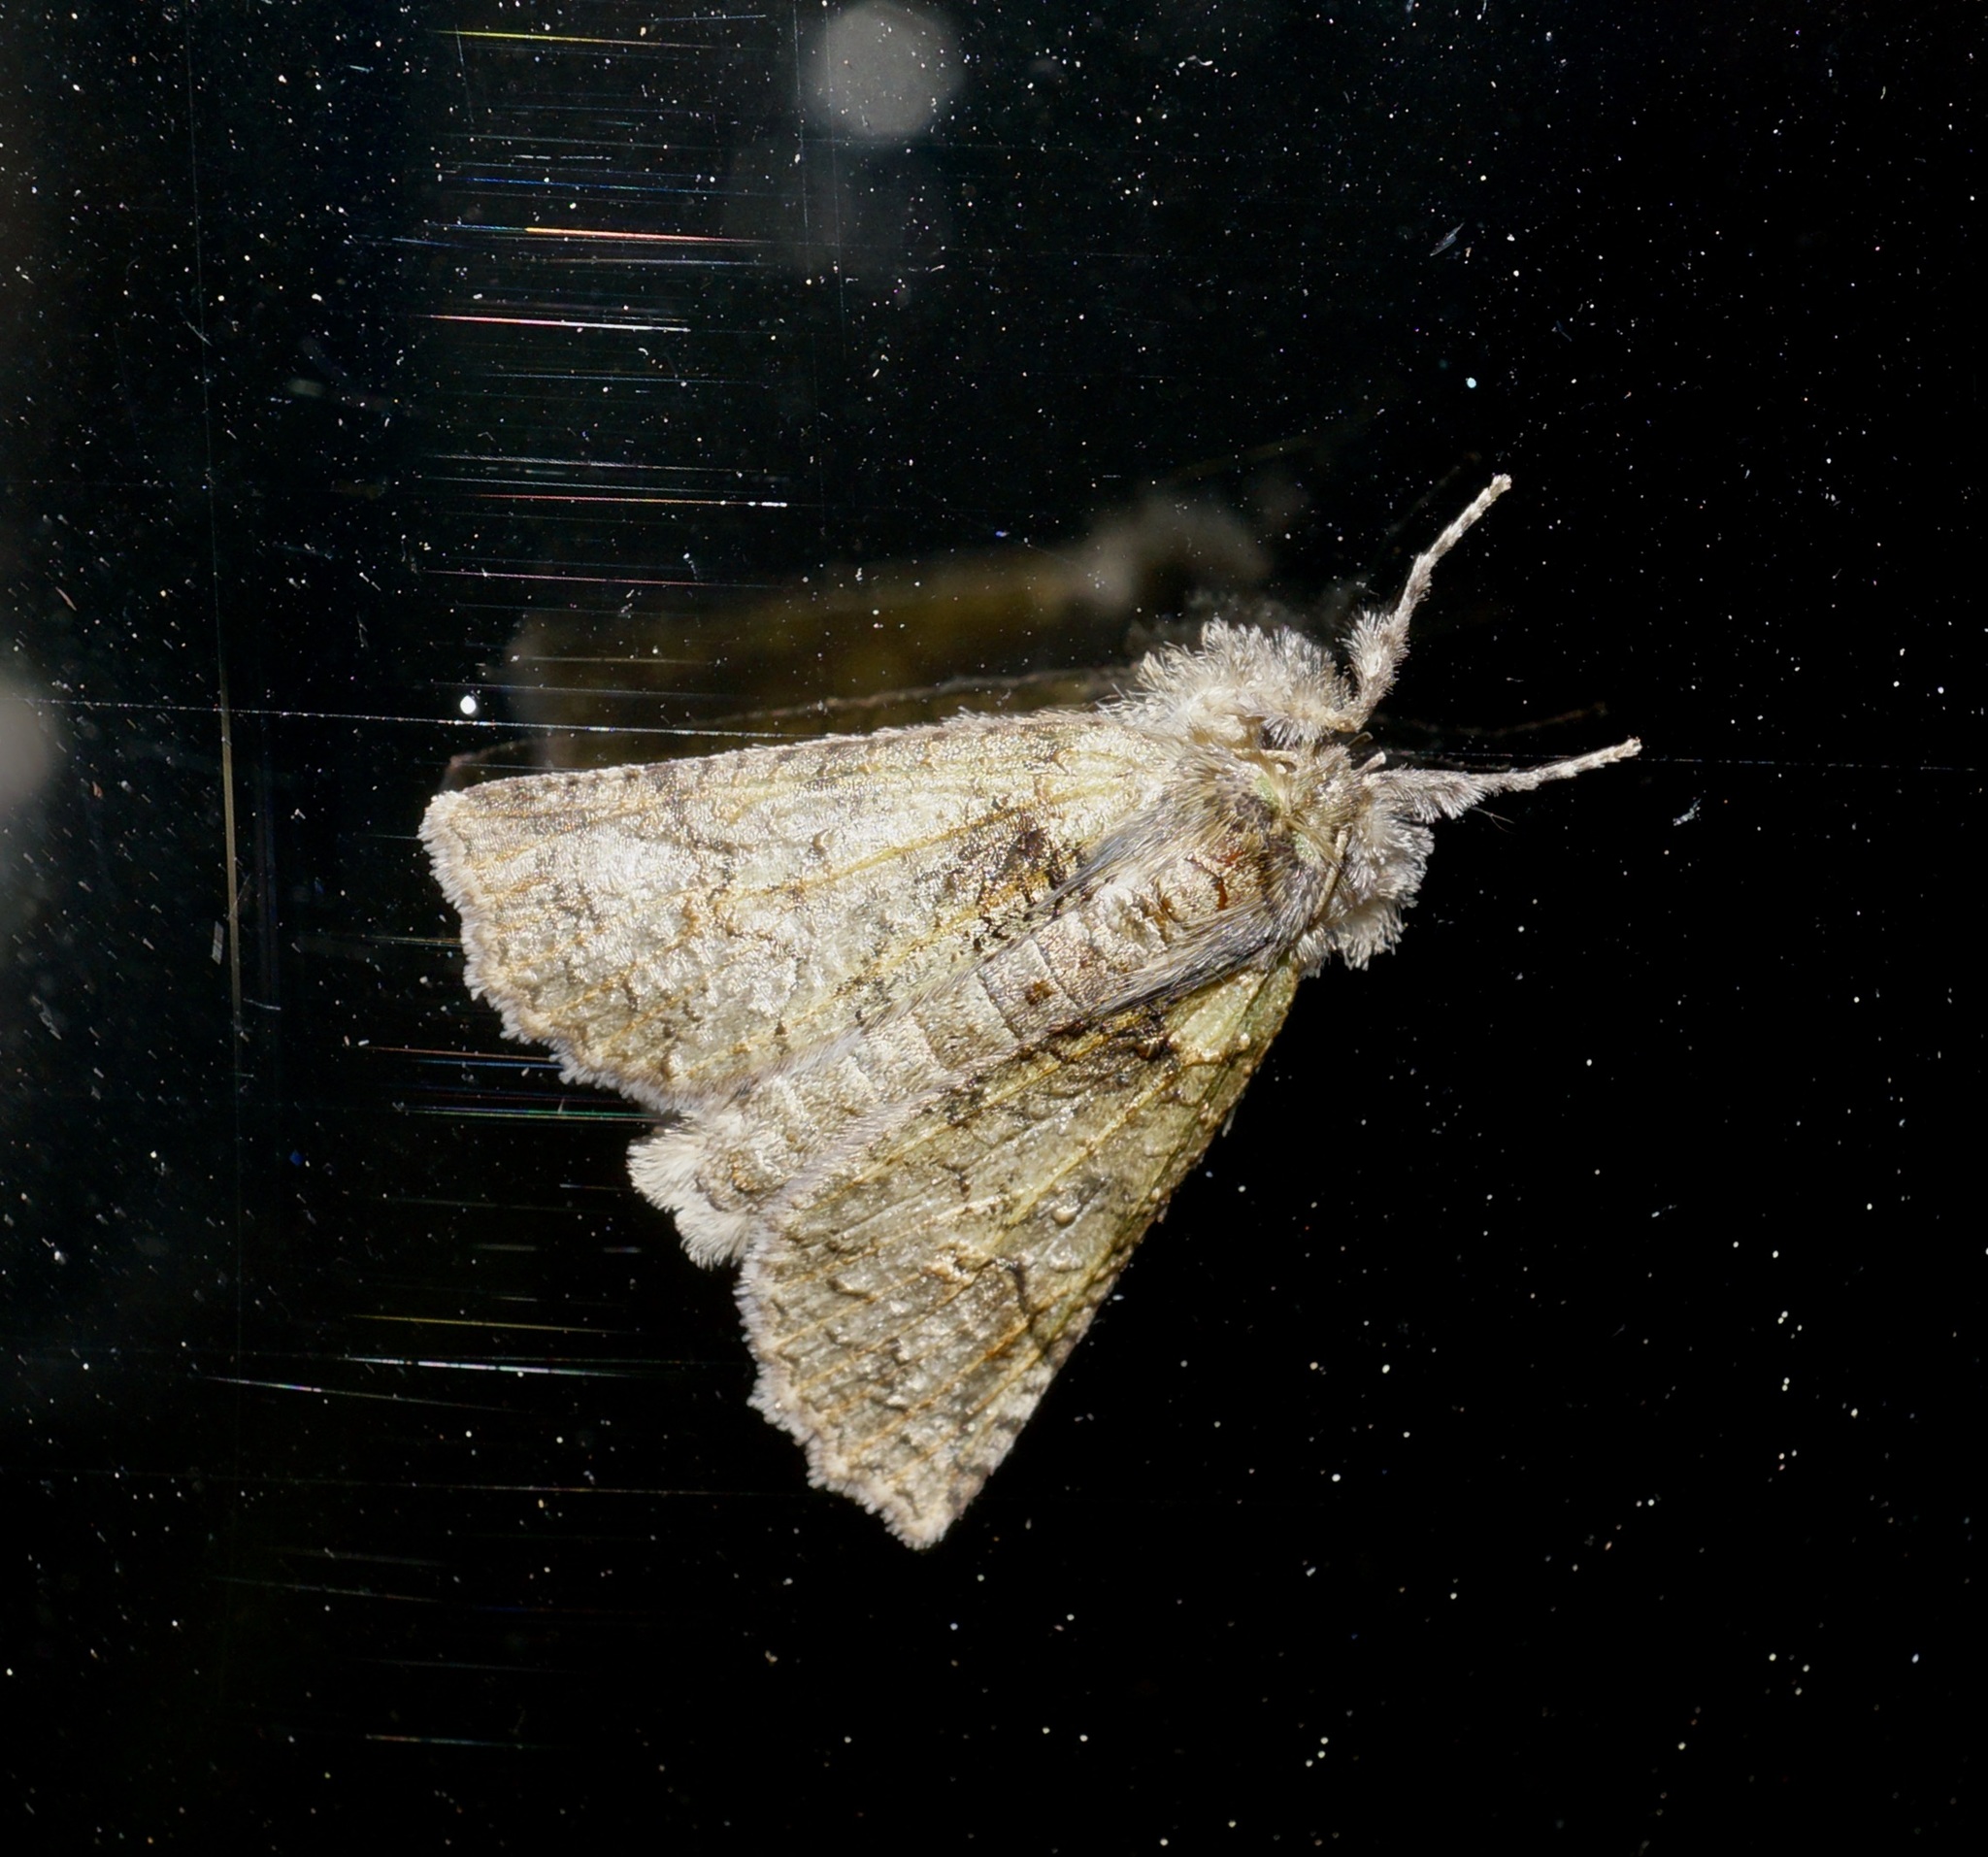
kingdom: Animalia
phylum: Arthropoda
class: Insecta
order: Lepidoptera
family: Geometridae
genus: Declana
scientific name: Declana floccosa
